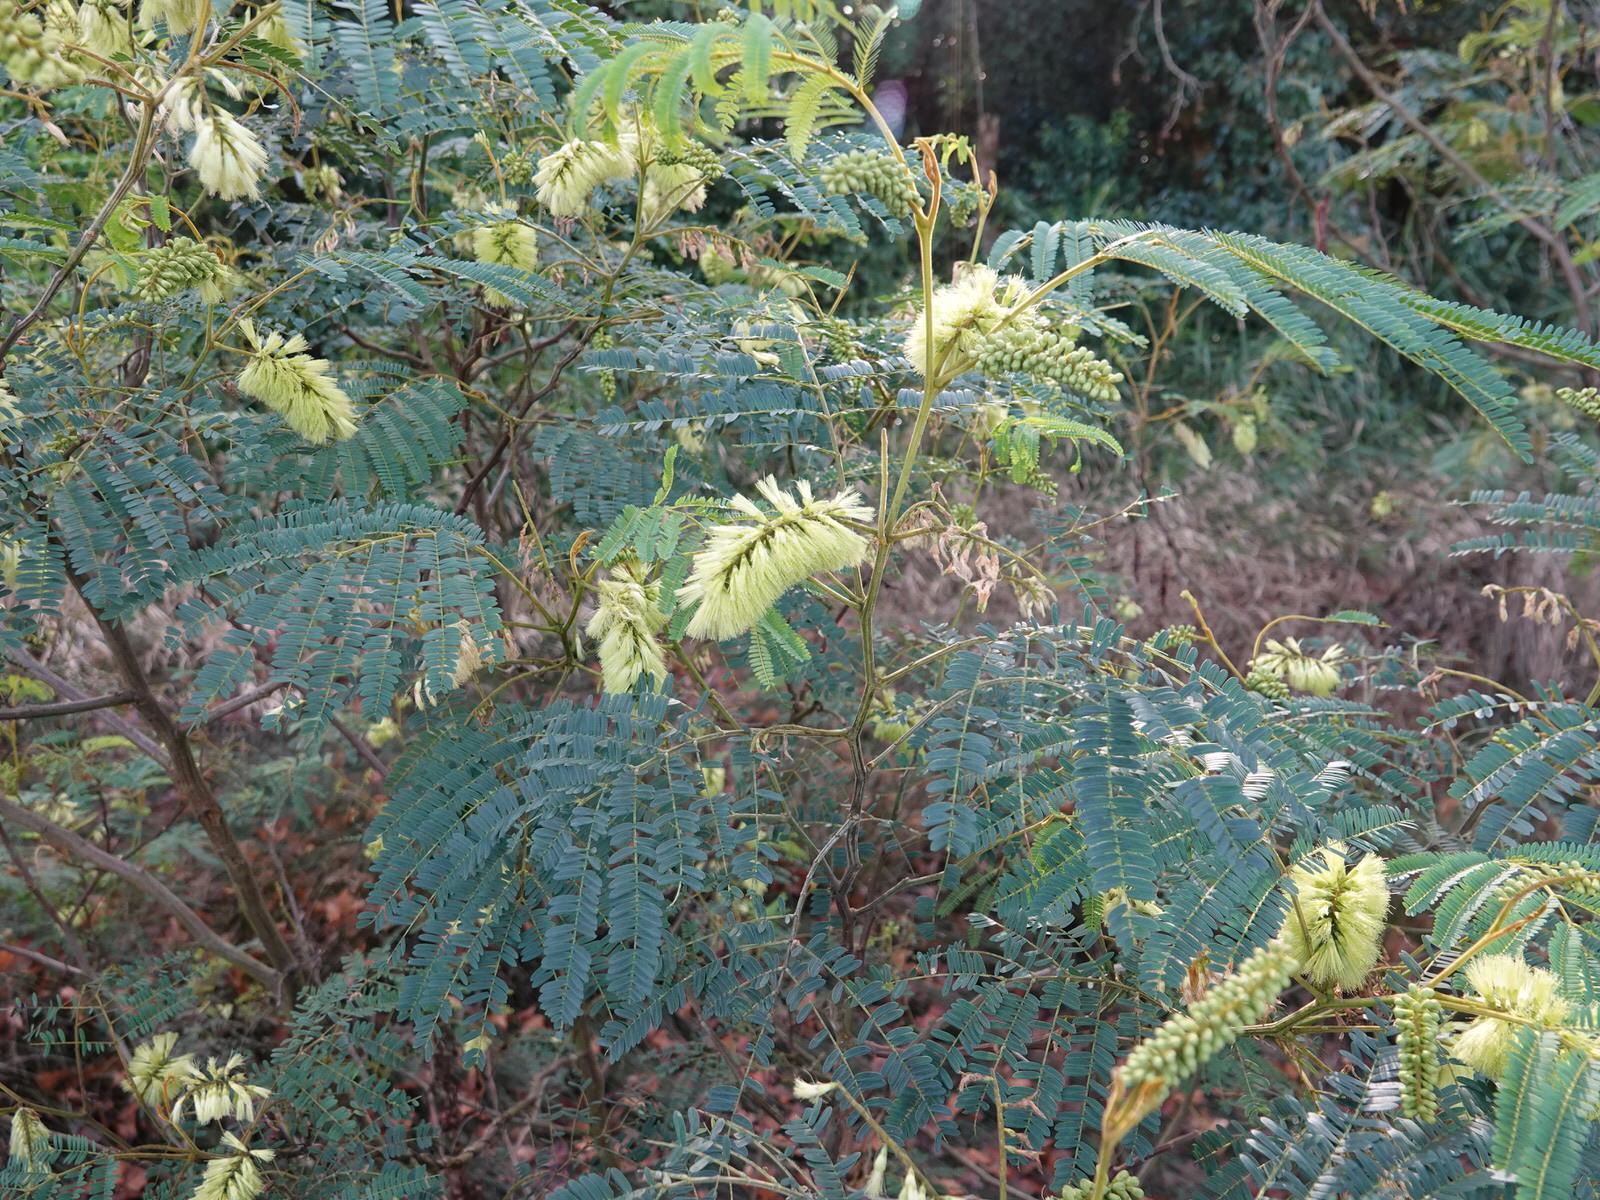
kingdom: Plantae
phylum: Tracheophyta
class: Magnoliopsida
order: Fabales
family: Fabaceae
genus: Paraserianthes
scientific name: Paraserianthes lophantha
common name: Plume albizia
